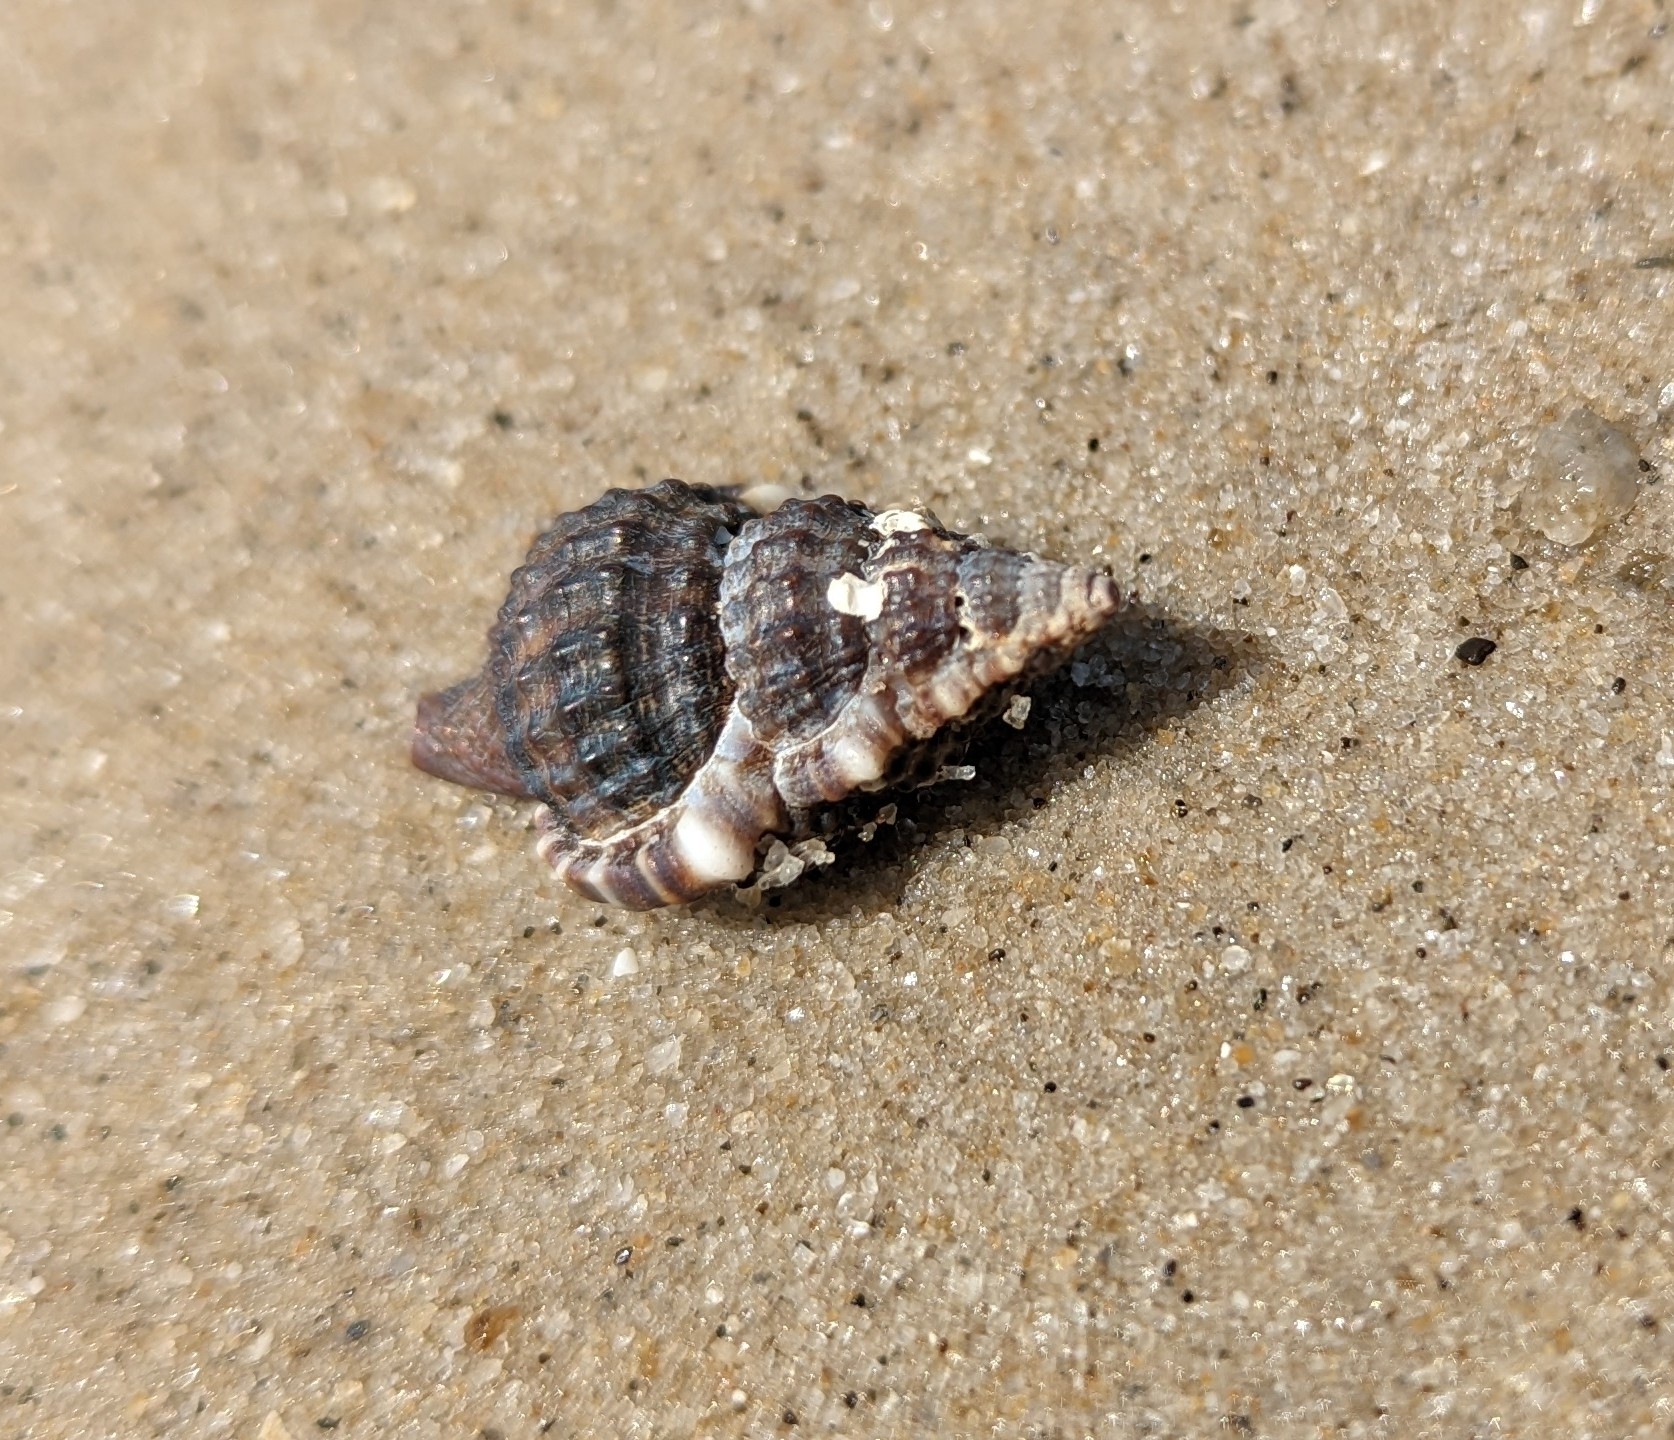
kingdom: Animalia
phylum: Mollusca
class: Gastropoda
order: Littorinimorpha
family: Cymatiidae
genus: Gyrineum
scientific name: Gyrineum natator
